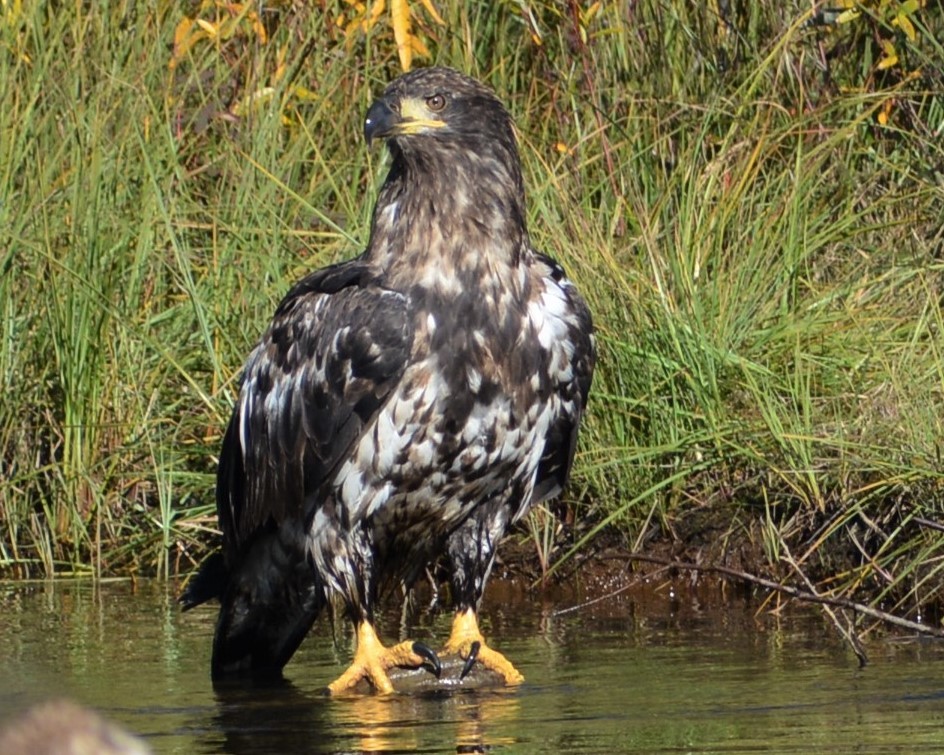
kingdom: Animalia
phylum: Chordata
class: Aves
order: Accipitriformes
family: Accipitridae
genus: Haliaeetus
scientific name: Haliaeetus leucocephalus
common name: Bald eagle
